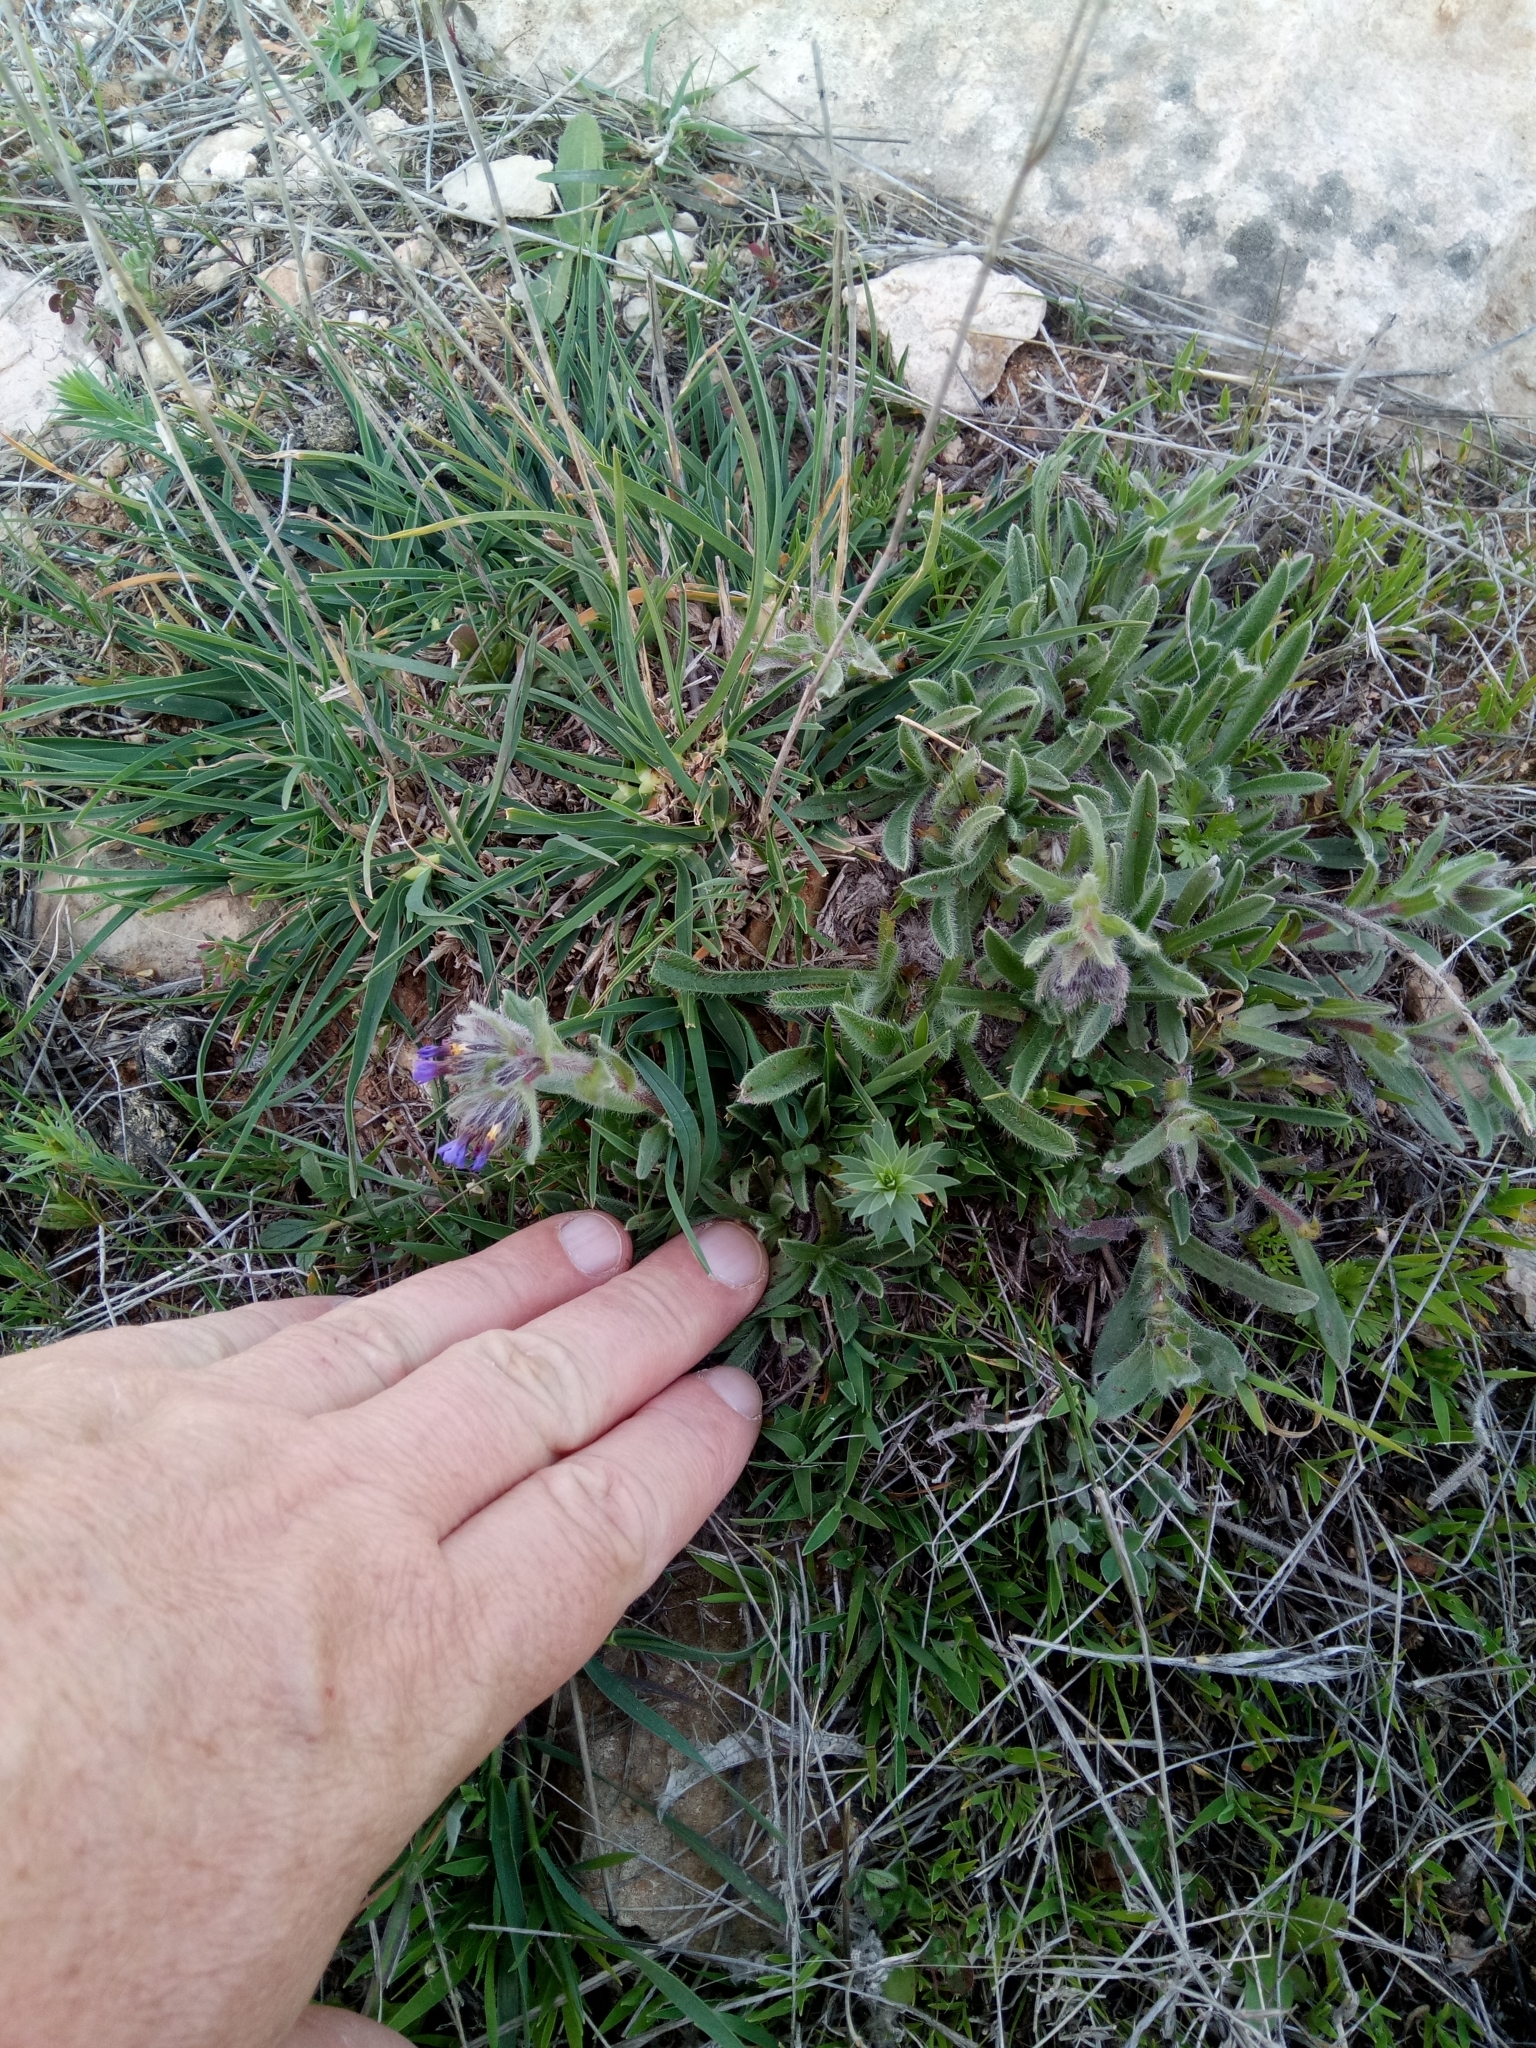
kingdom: Plantae
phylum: Tracheophyta
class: Magnoliopsida
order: Boraginales
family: Boraginaceae
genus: Alkanna
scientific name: Alkanna tinctoria
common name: Dyer's-alkanet
